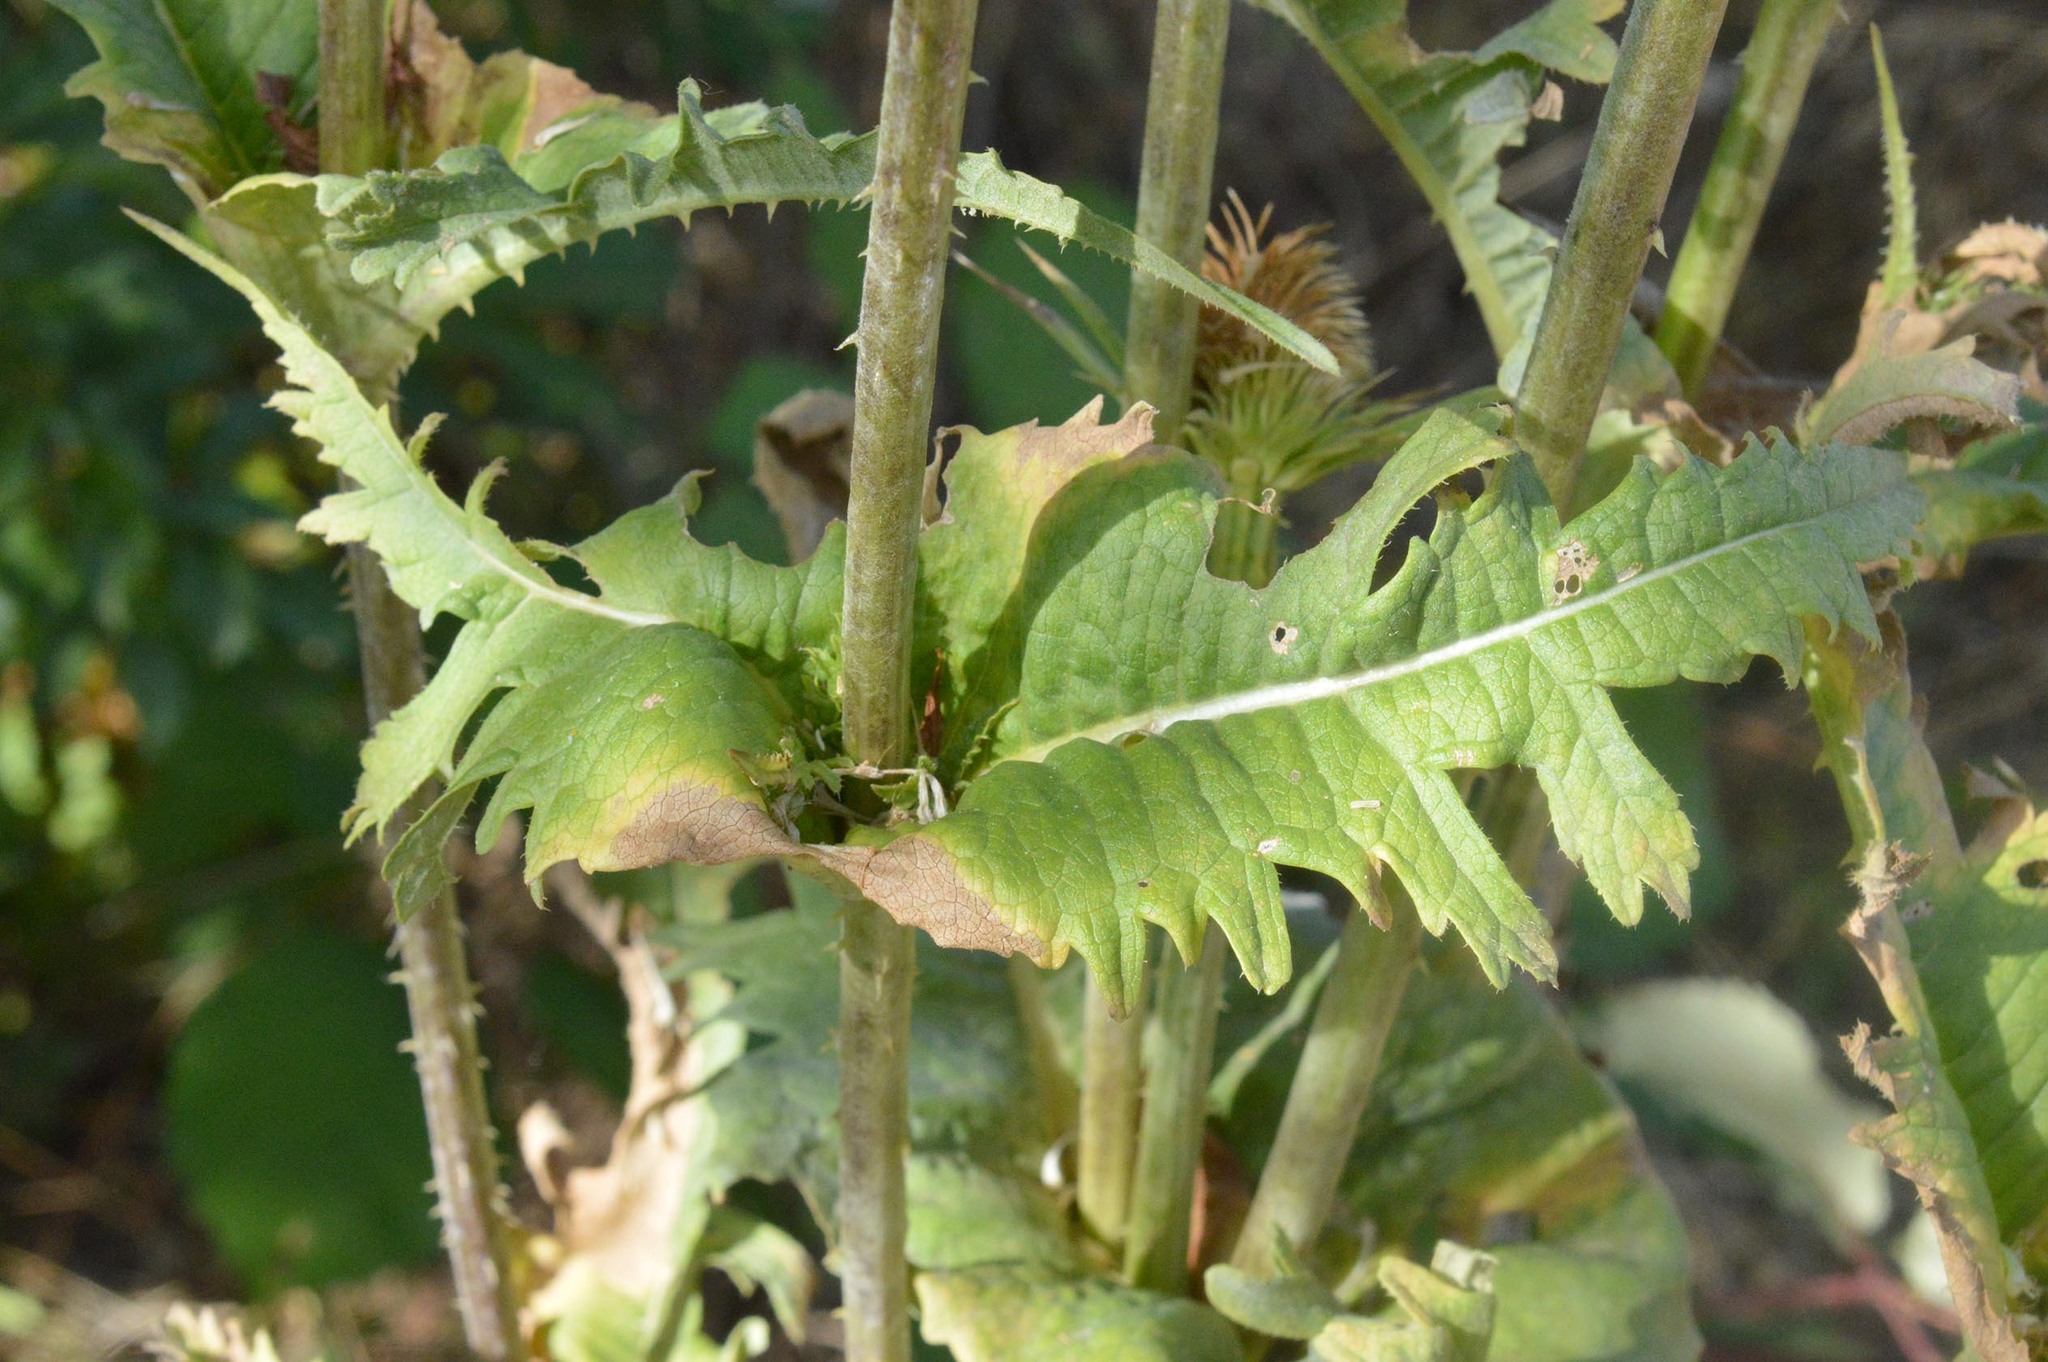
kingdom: Plantae
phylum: Tracheophyta
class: Magnoliopsida
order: Dipsacales
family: Caprifoliaceae
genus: Dipsacus
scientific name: Dipsacus laciniatus
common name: Cut-leaved teasel
